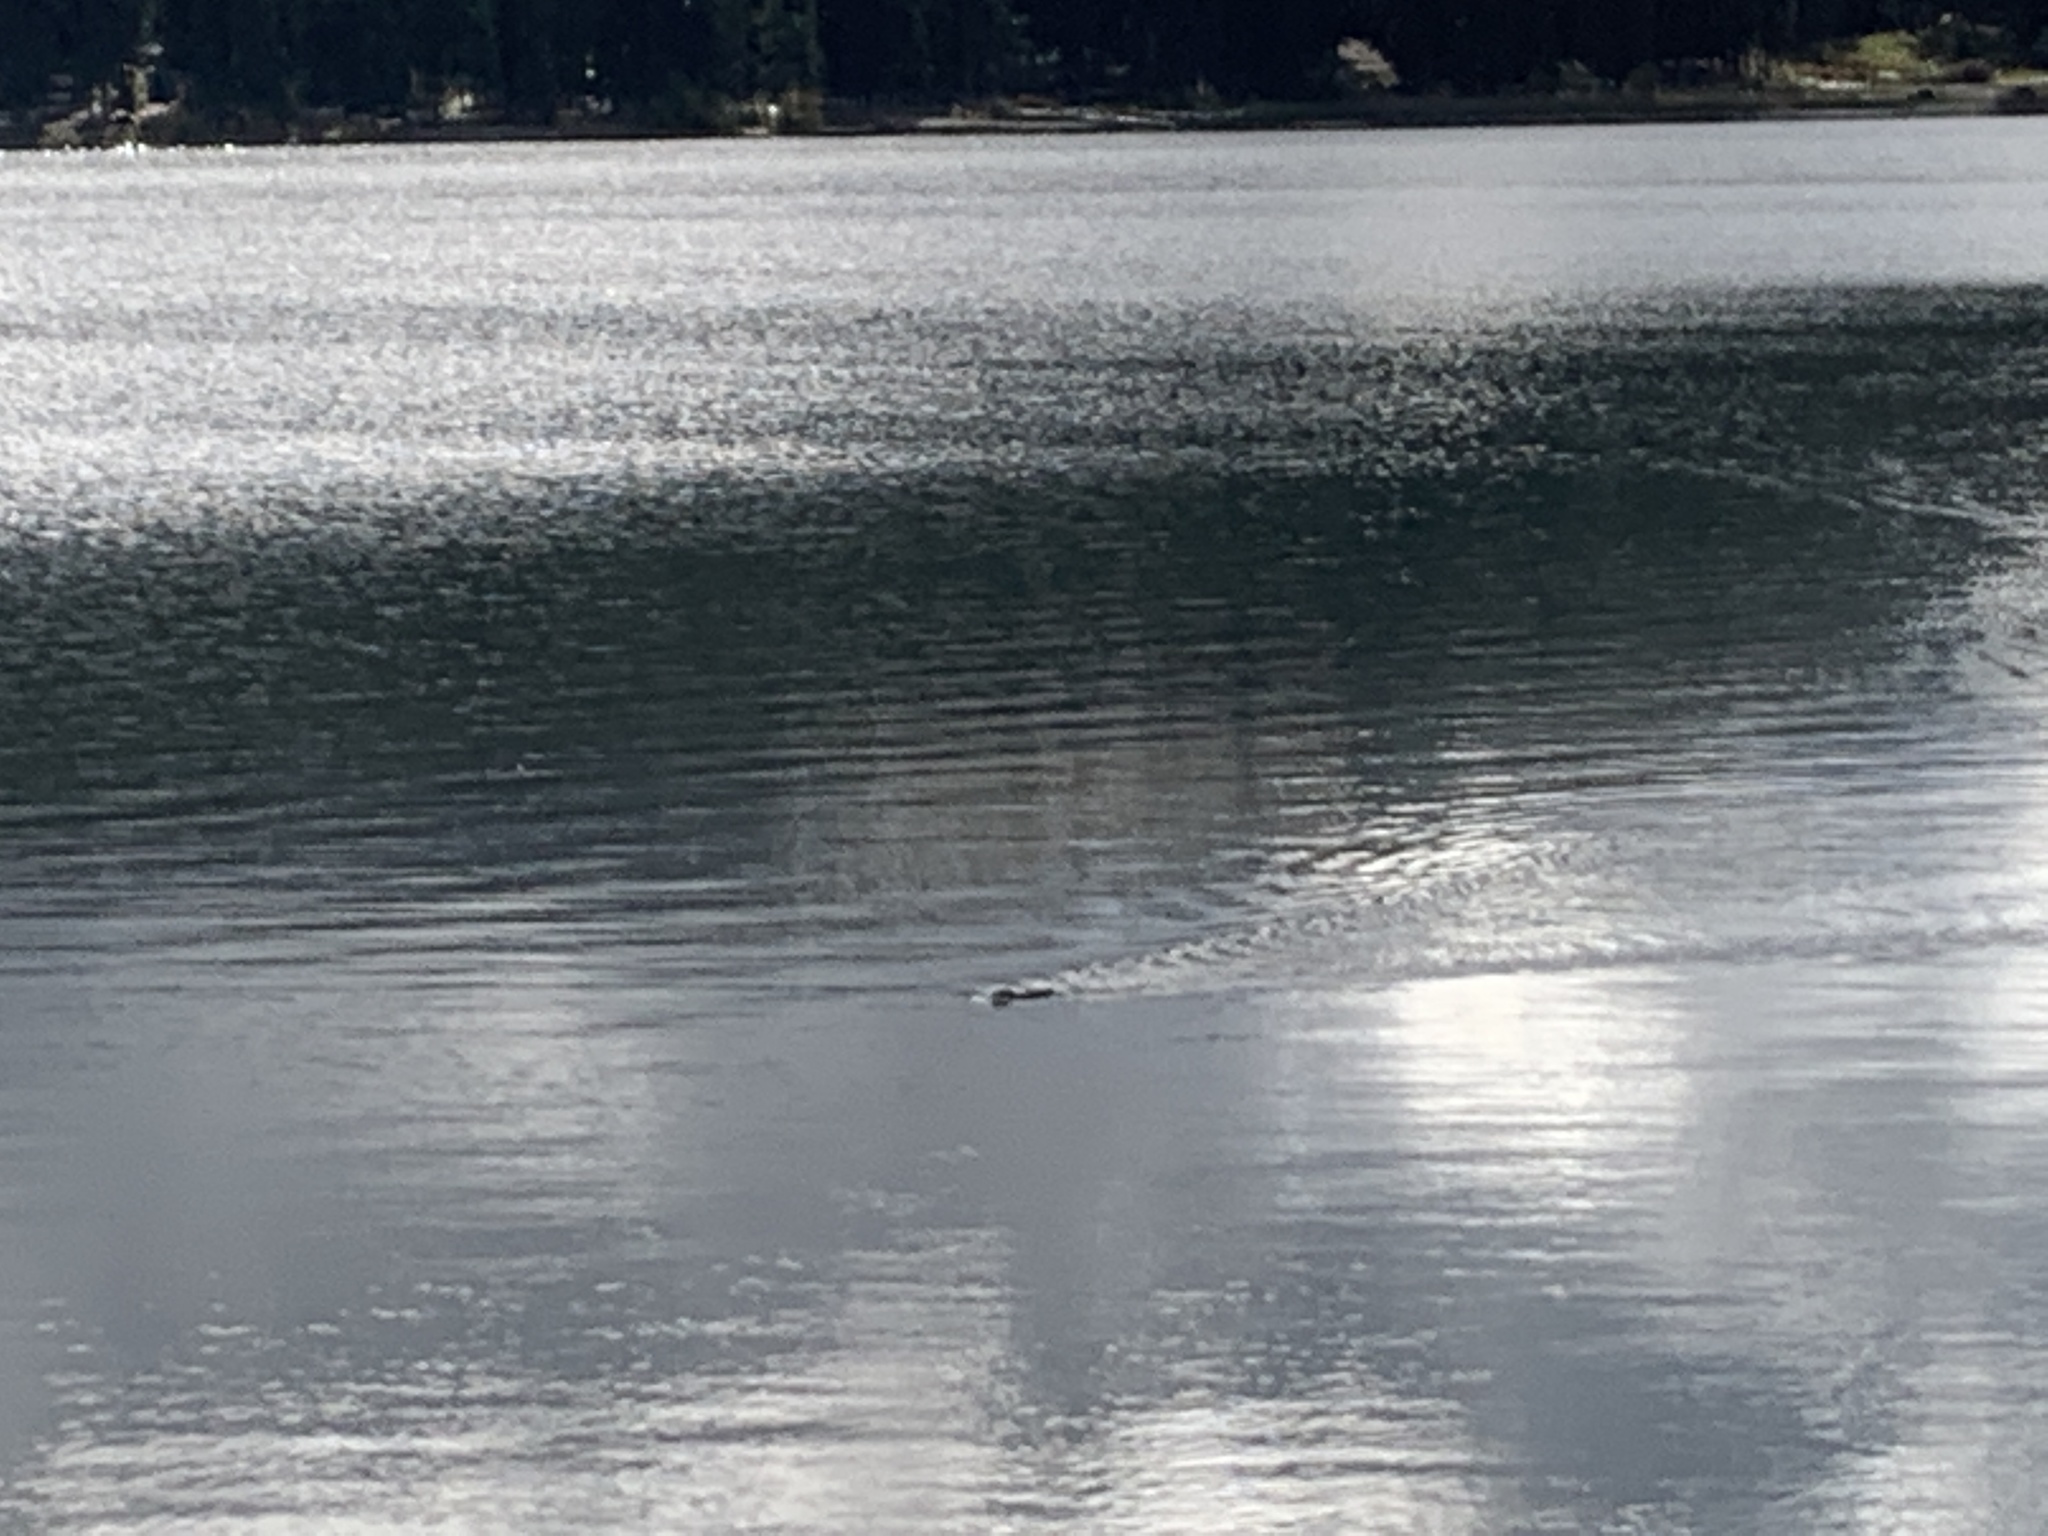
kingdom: Animalia
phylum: Chordata
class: Mammalia
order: Rodentia
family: Cricetidae
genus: Ondatra
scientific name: Ondatra zibethicus
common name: Muskrat
